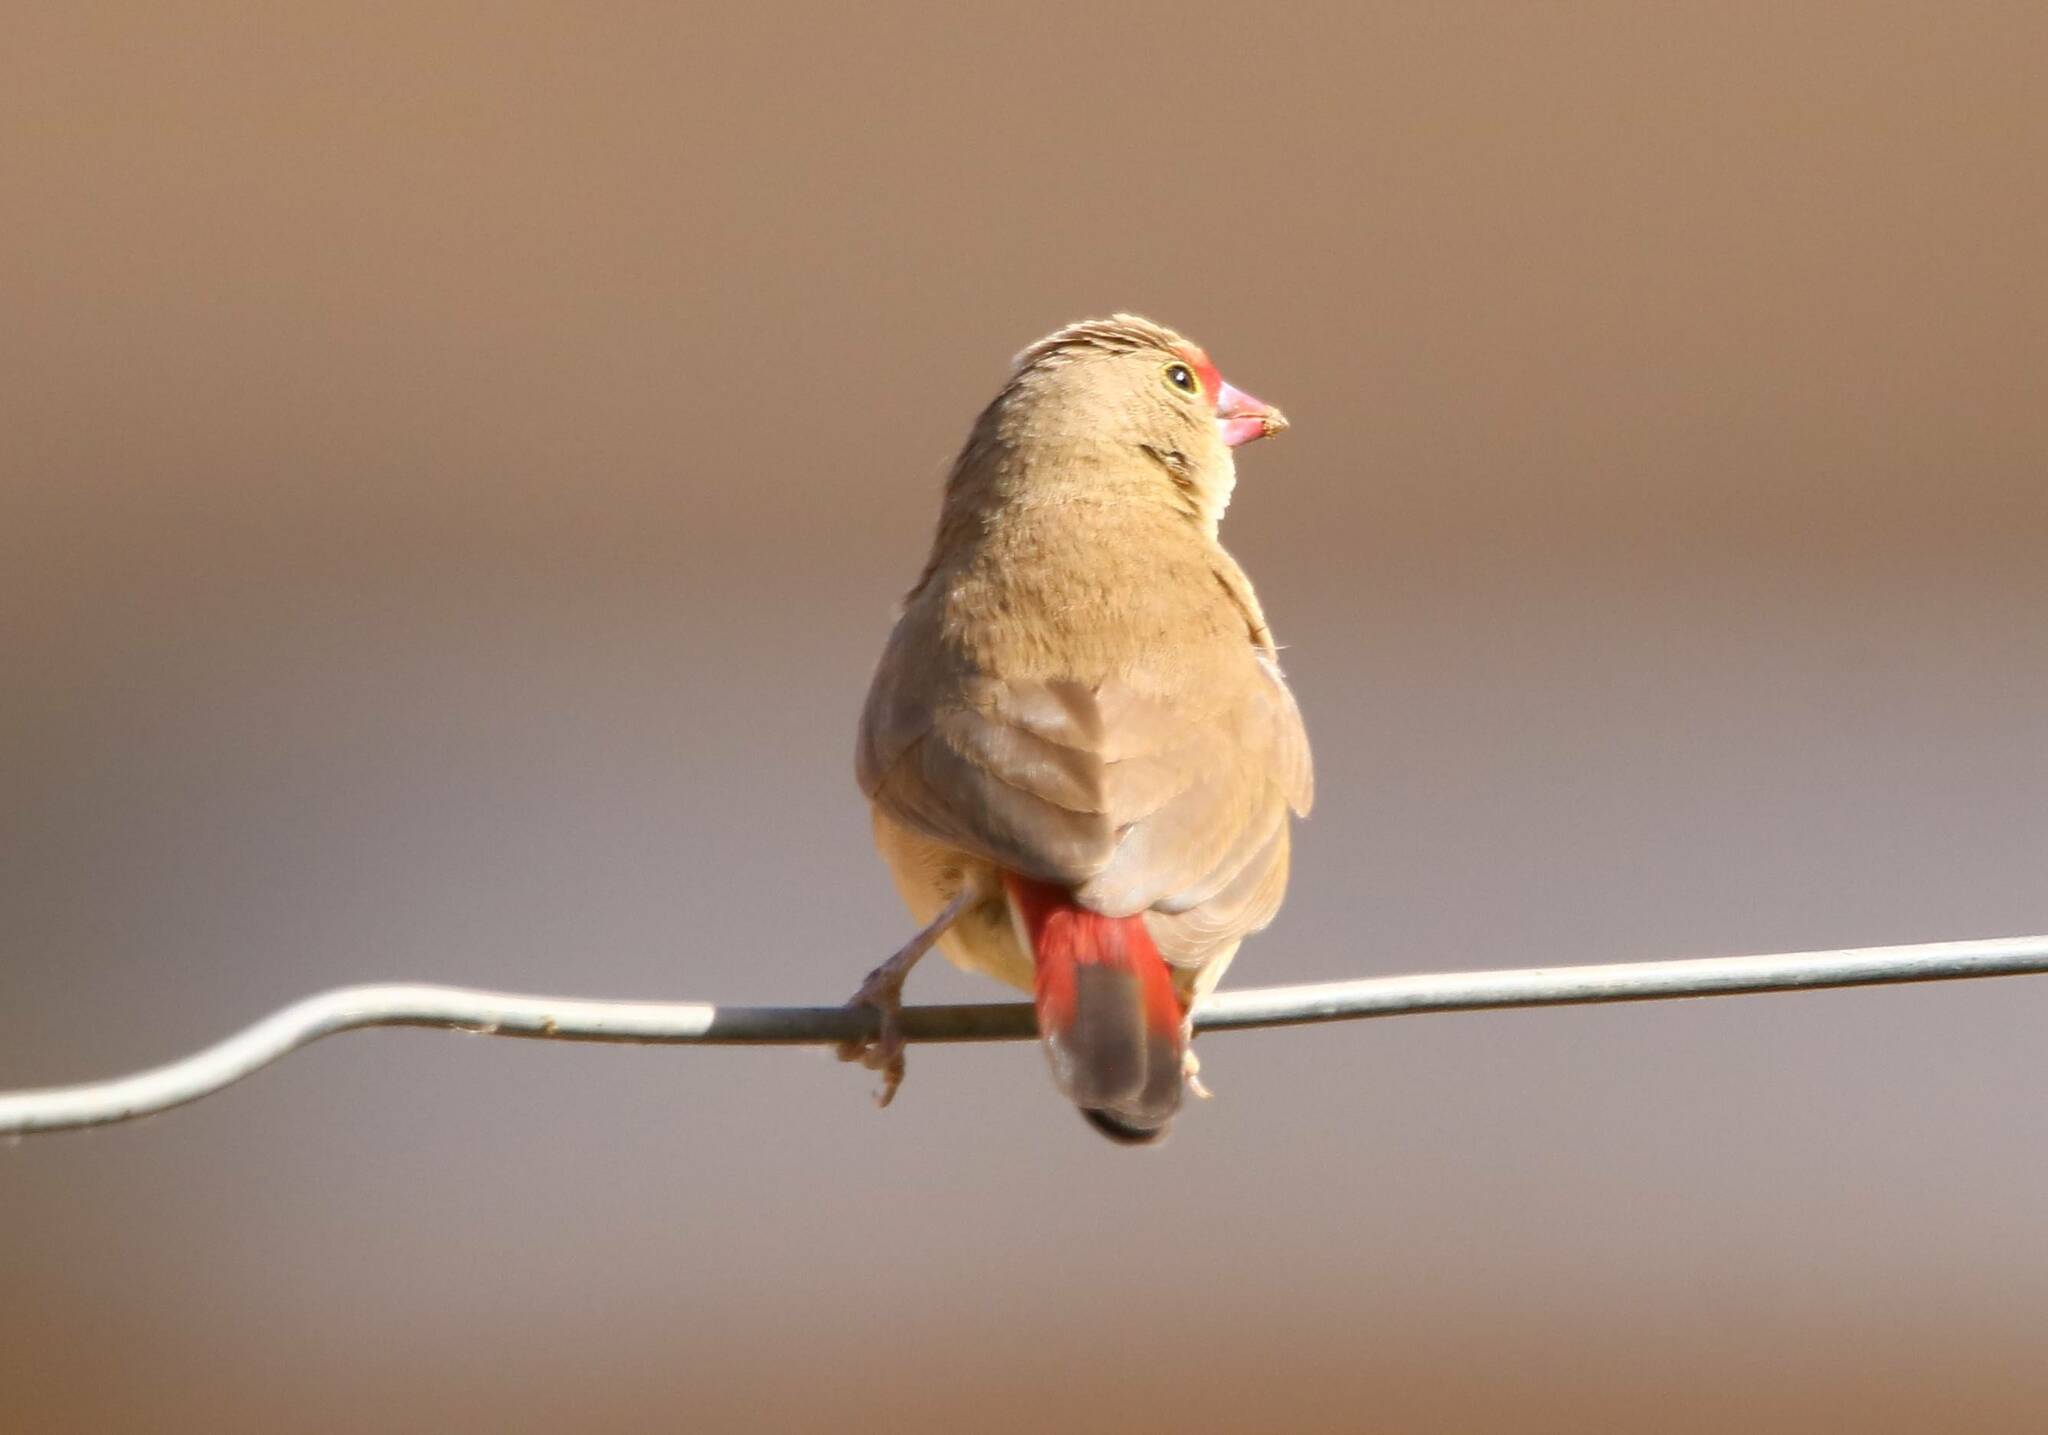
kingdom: Animalia
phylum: Chordata
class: Aves
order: Passeriformes
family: Estrildidae
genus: Lagonosticta
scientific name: Lagonosticta senegala
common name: Red-billed firefinch
